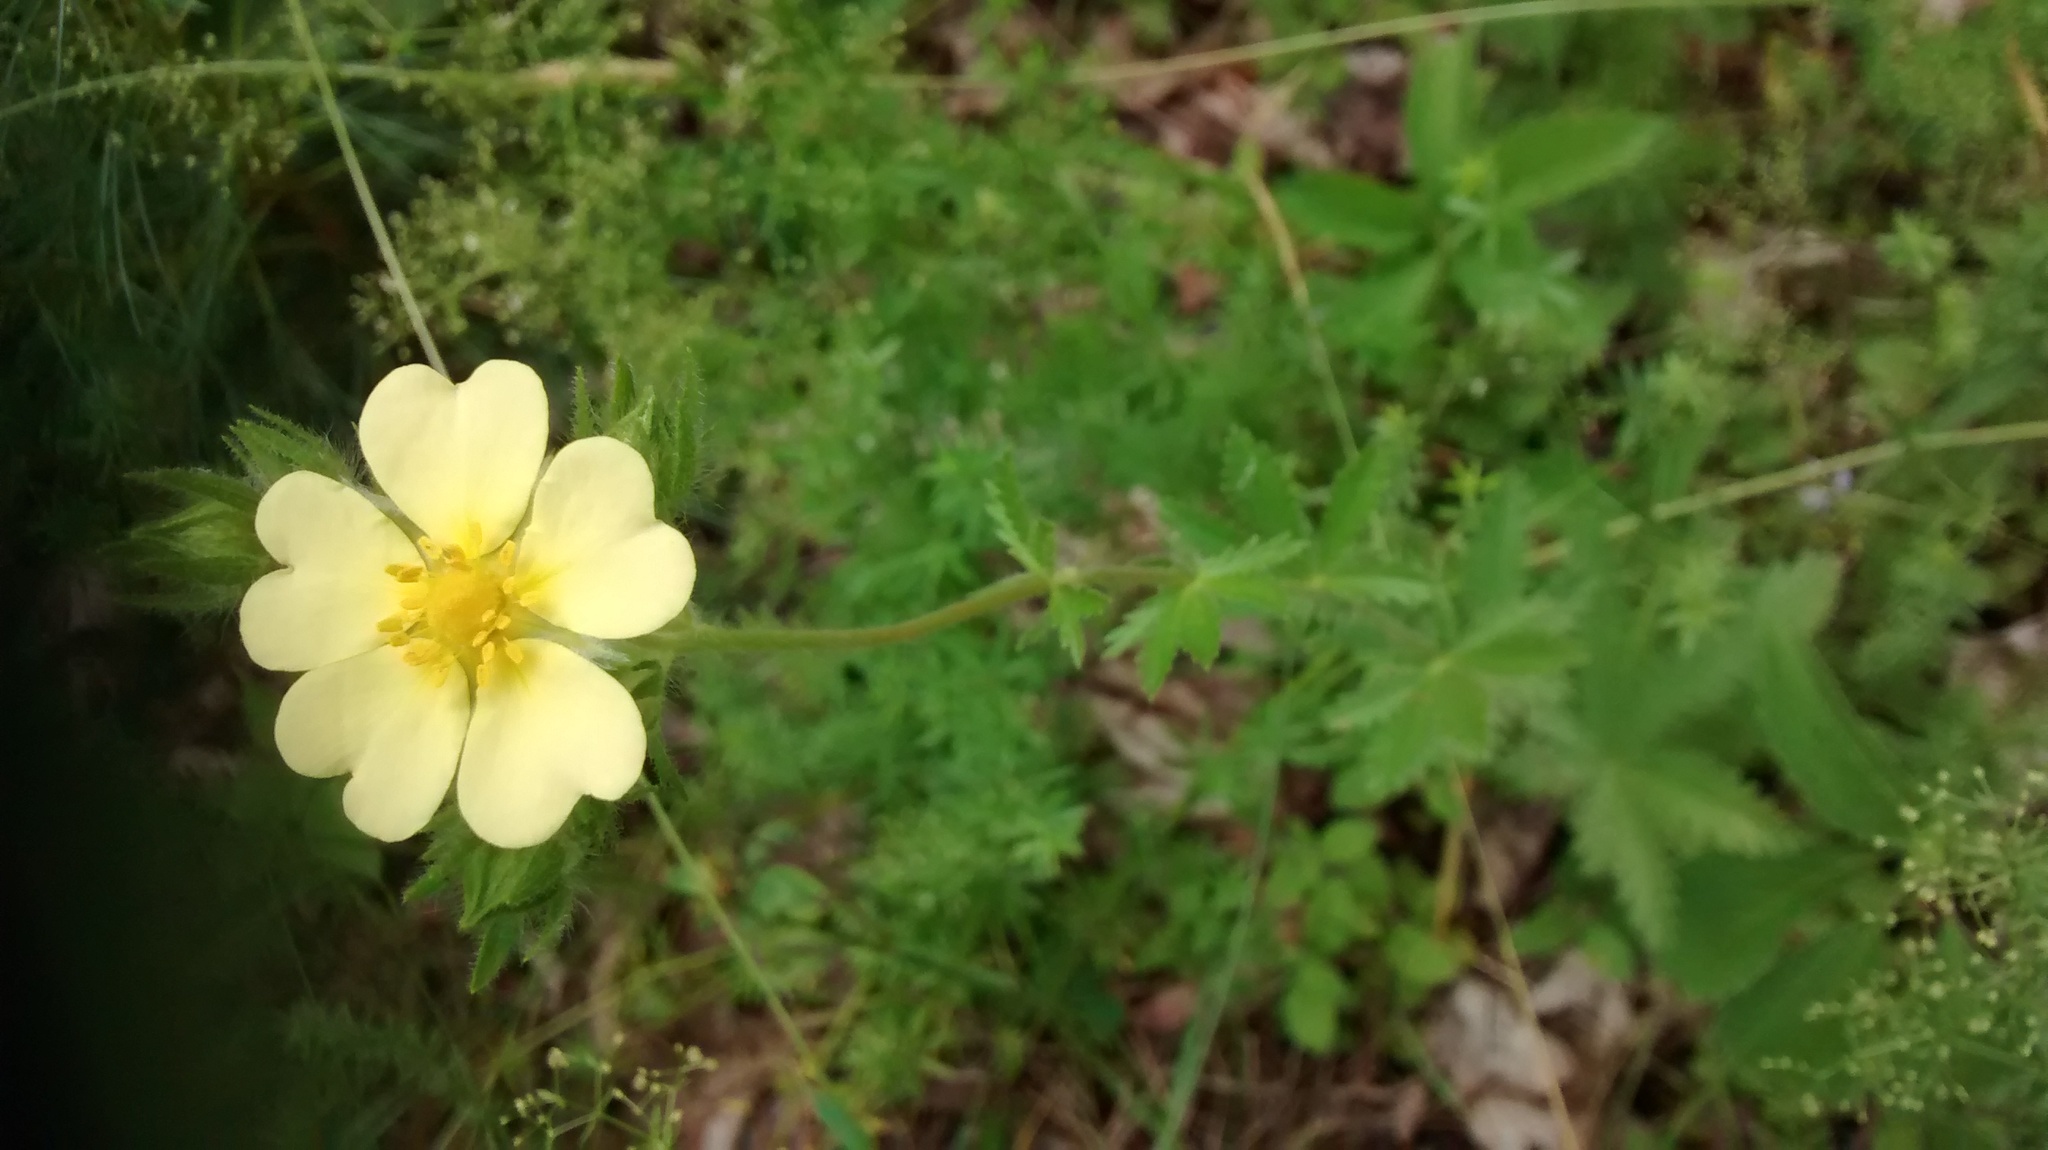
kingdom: Plantae
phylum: Tracheophyta
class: Magnoliopsida
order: Rosales
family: Rosaceae
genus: Potentilla
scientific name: Potentilla recta
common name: Sulphur cinquefoil
